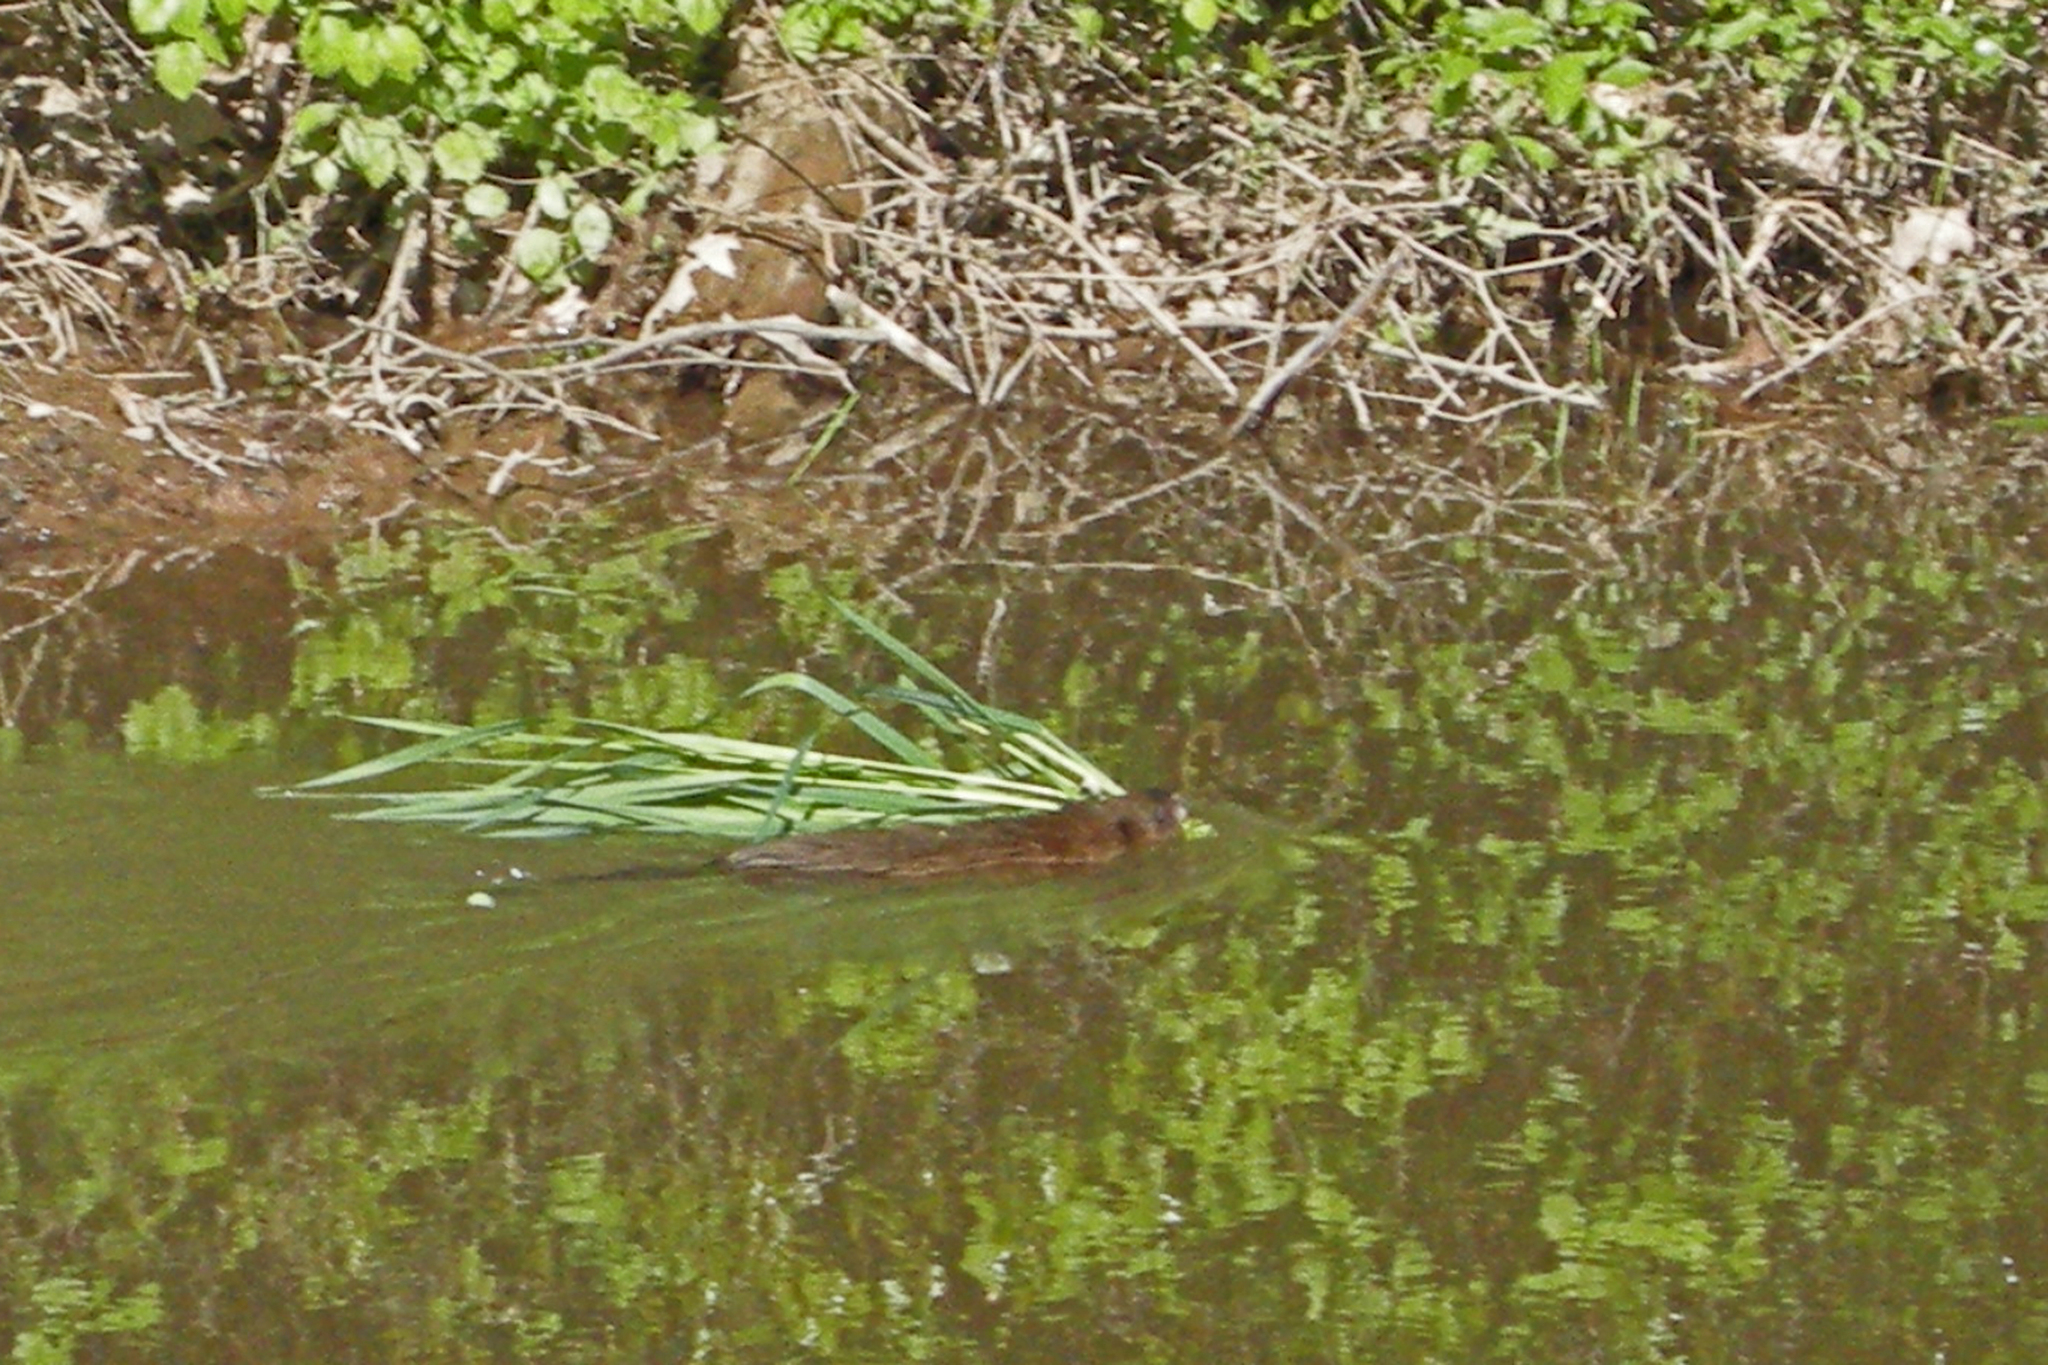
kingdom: Animalia
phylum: Chordata
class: Mammalia
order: Rodentia
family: Cricetidae
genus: Ondatra
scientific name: Ondatra zibethicus
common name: Muskrat
